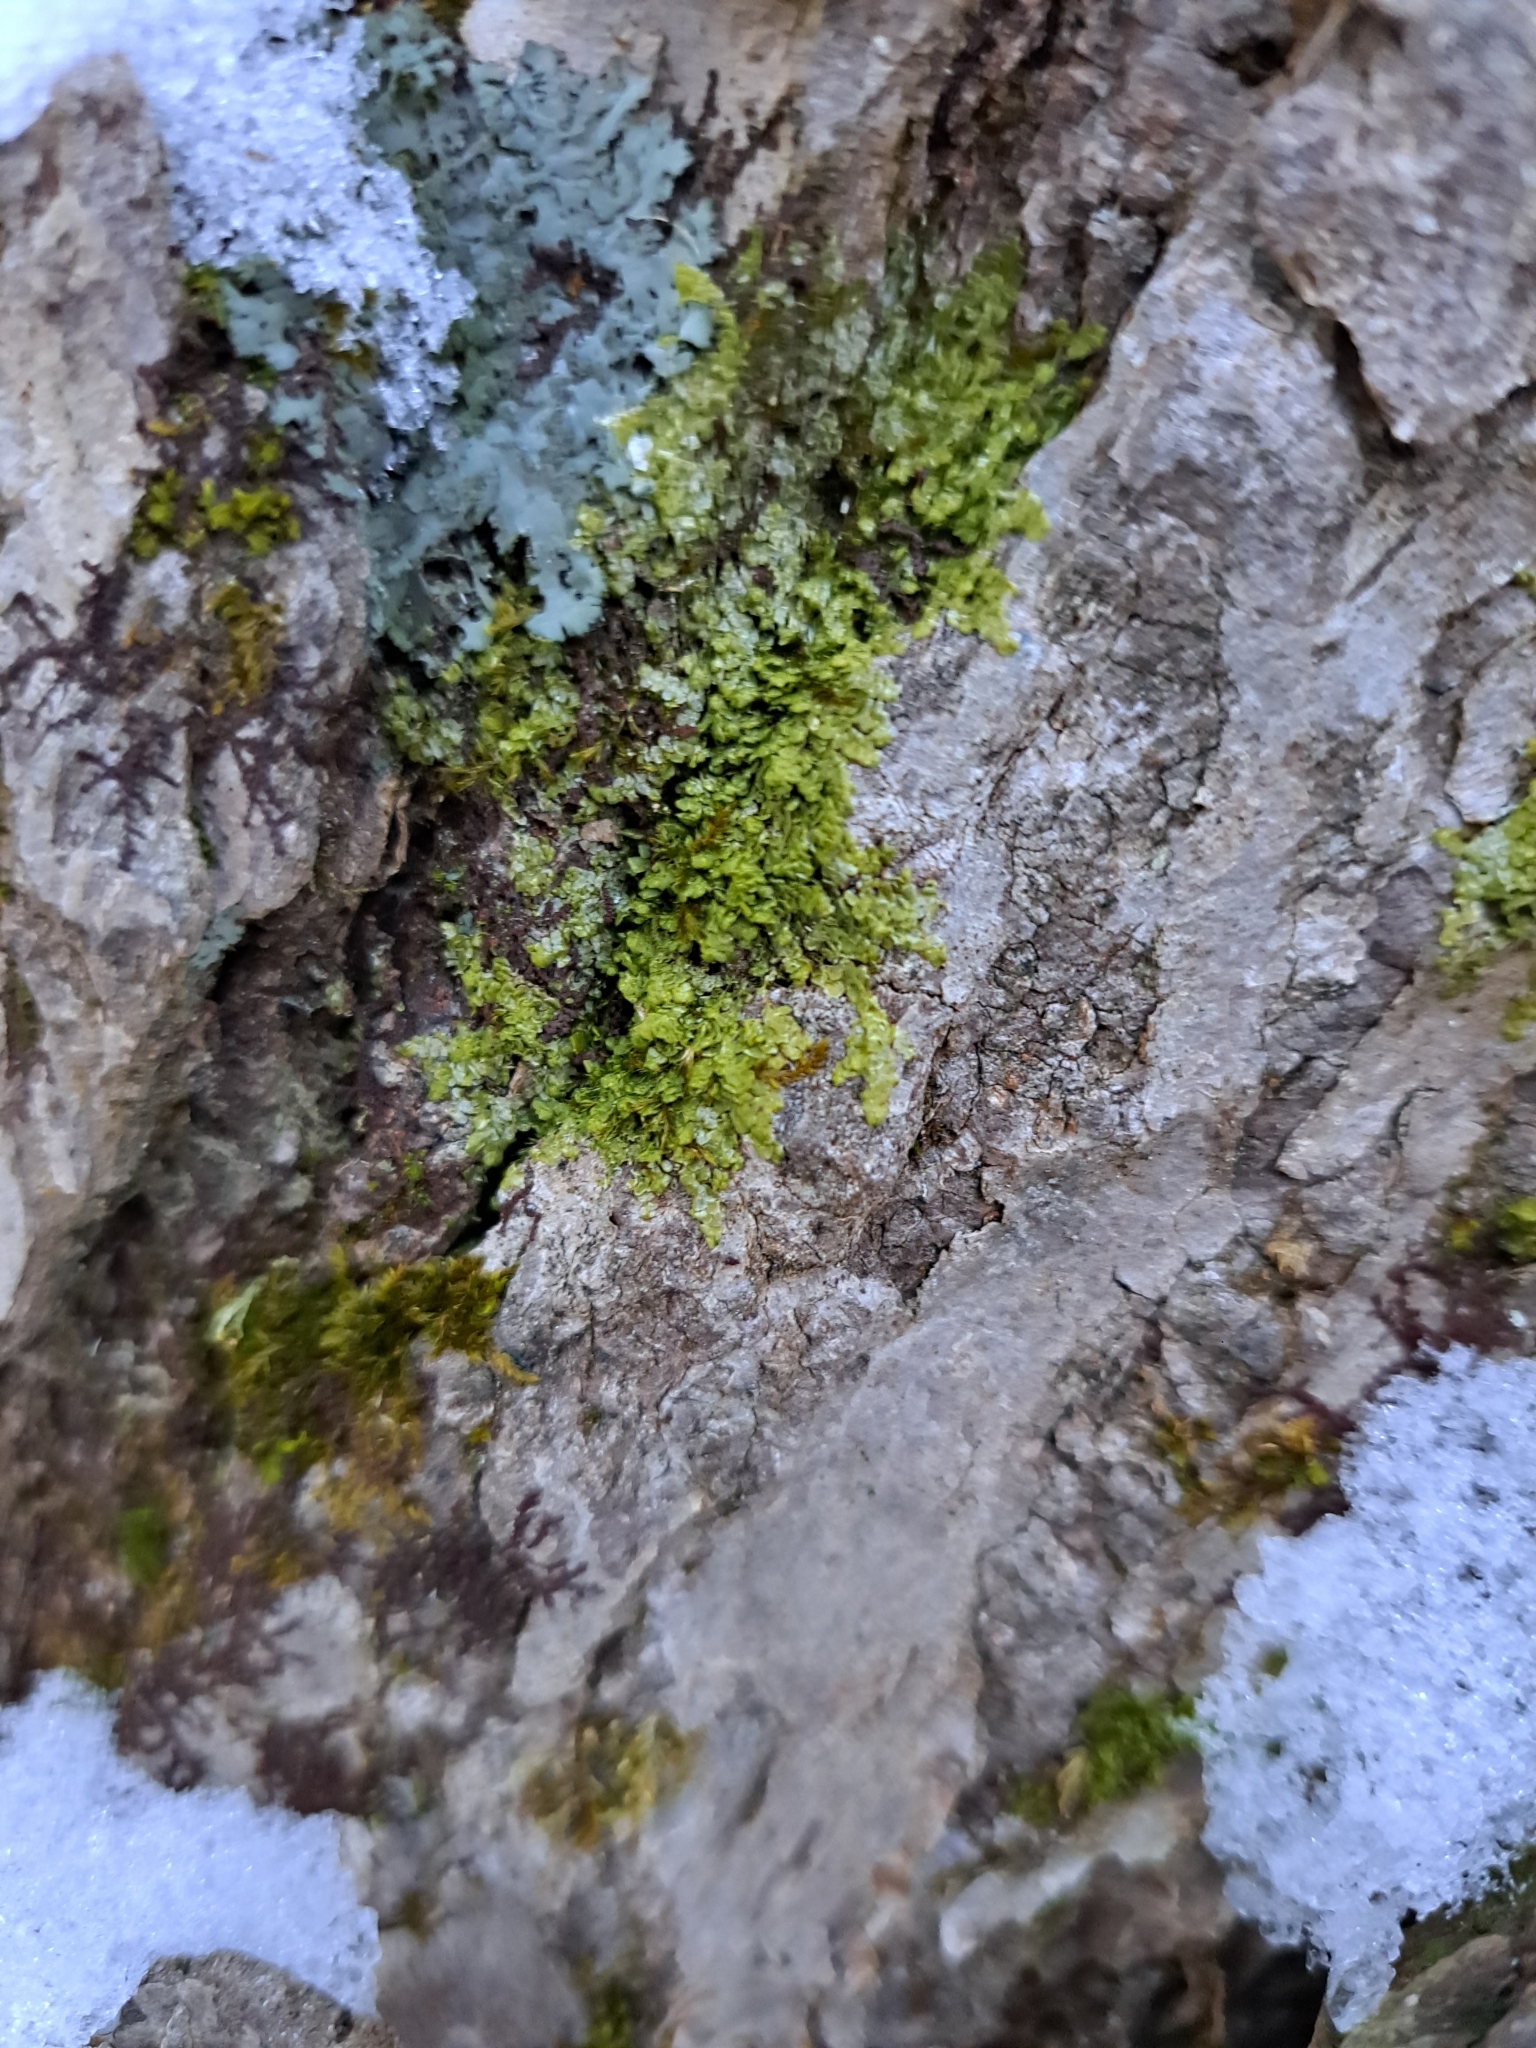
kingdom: Plantae
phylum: Marchantiophyta
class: Jungermanniopsida
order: Porellales
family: Radulaceae
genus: Radula
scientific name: Radula complanata
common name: Flat-leaved scalewort
